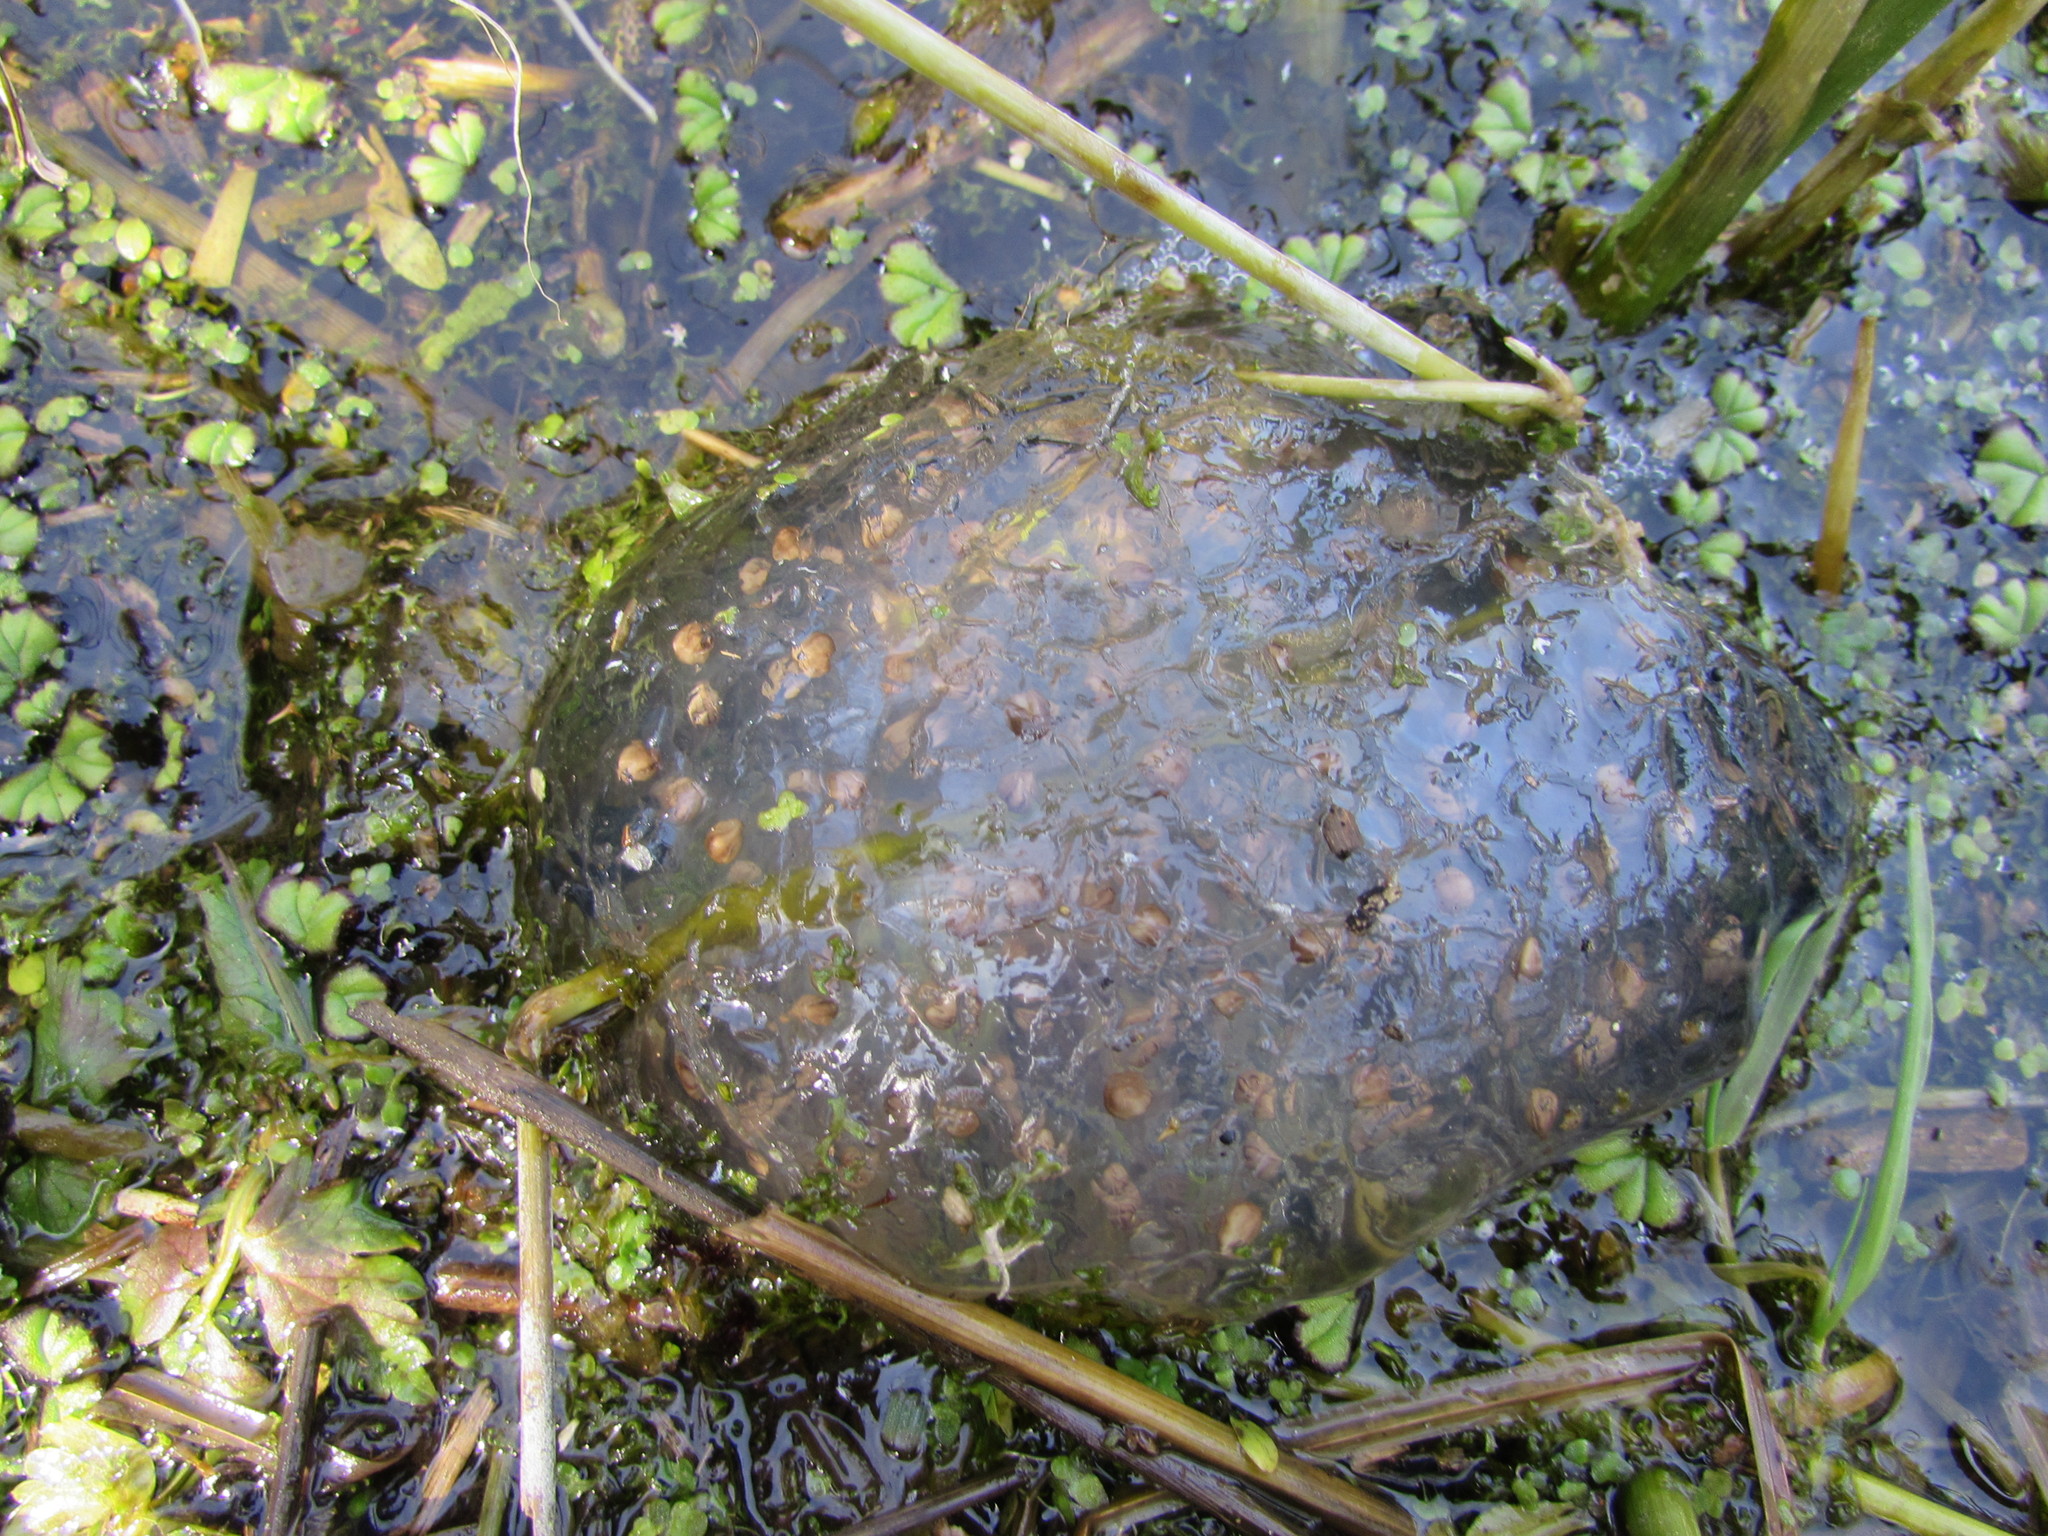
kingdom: Animalia
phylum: Chordata
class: Amphibia
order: Caudata
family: Ambystomatidae
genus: Ambystoma
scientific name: Ambystoma gracile
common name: Northwestern salamander
